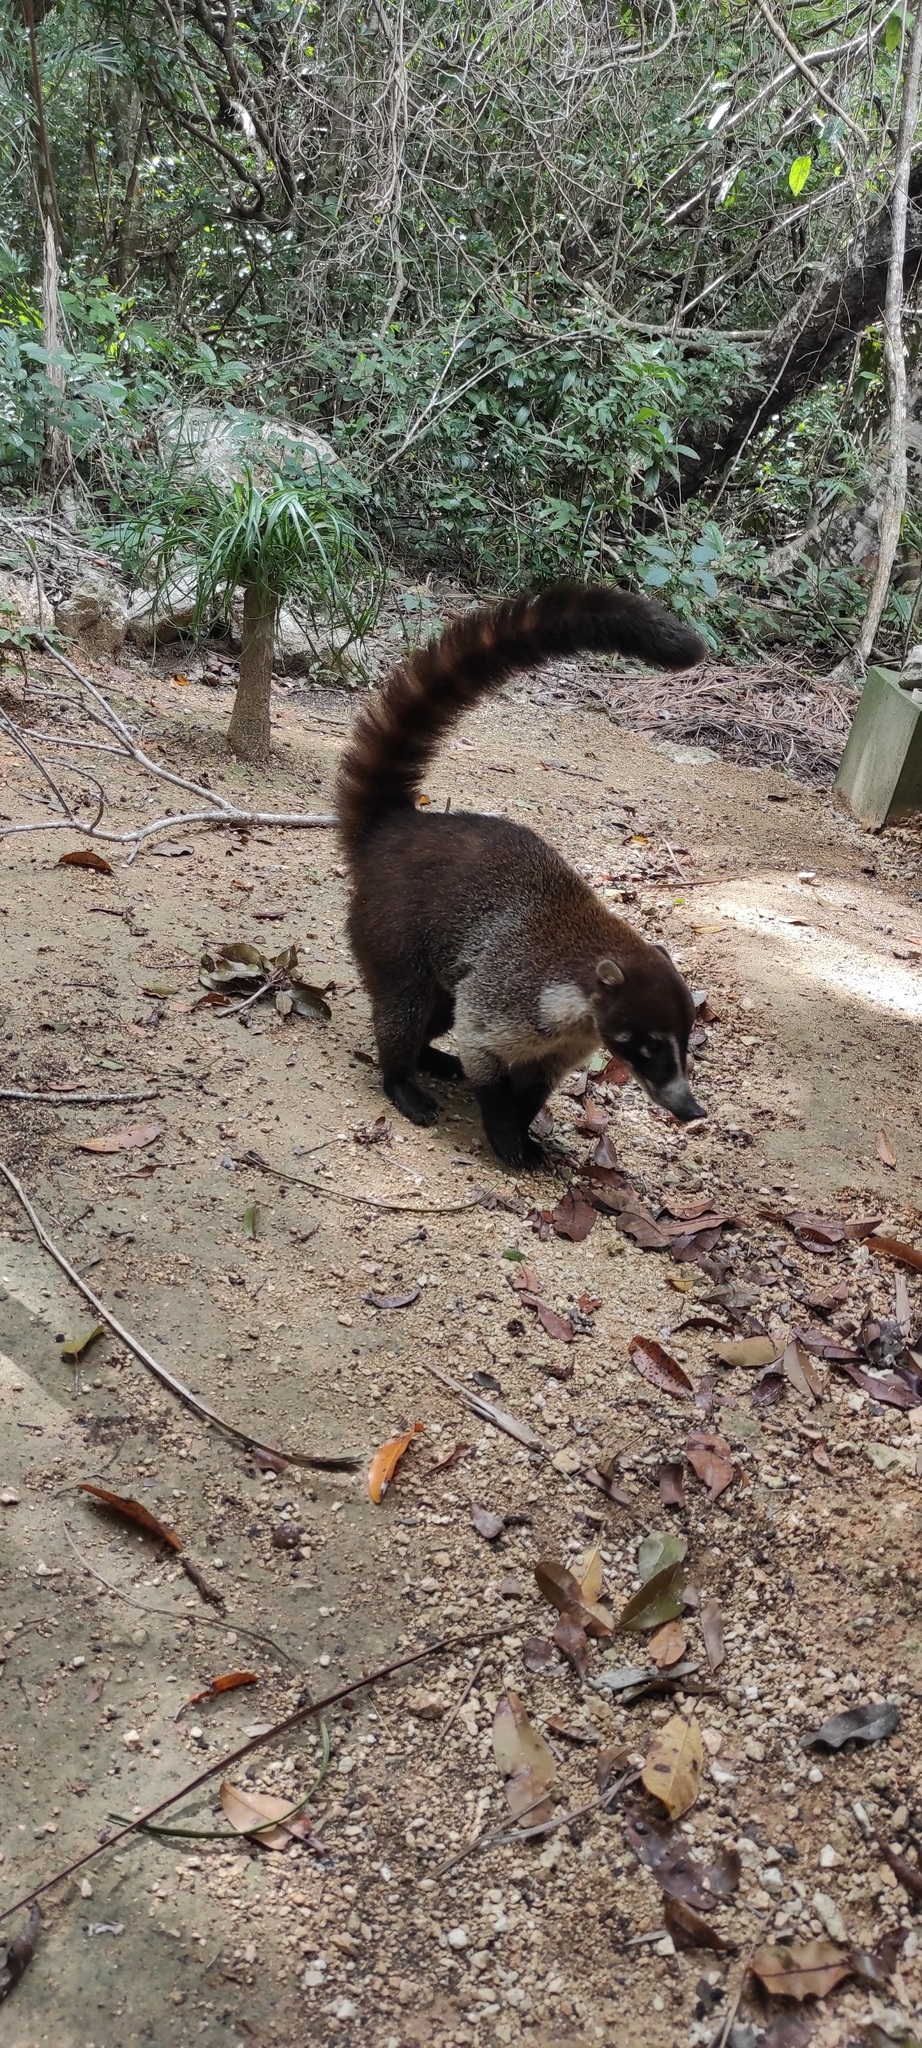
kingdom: Animalia
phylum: Chordata
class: Mammalia
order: Carnivora
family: Procyonidae
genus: Nasua
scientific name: Nasua narica
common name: White-nosed coati
